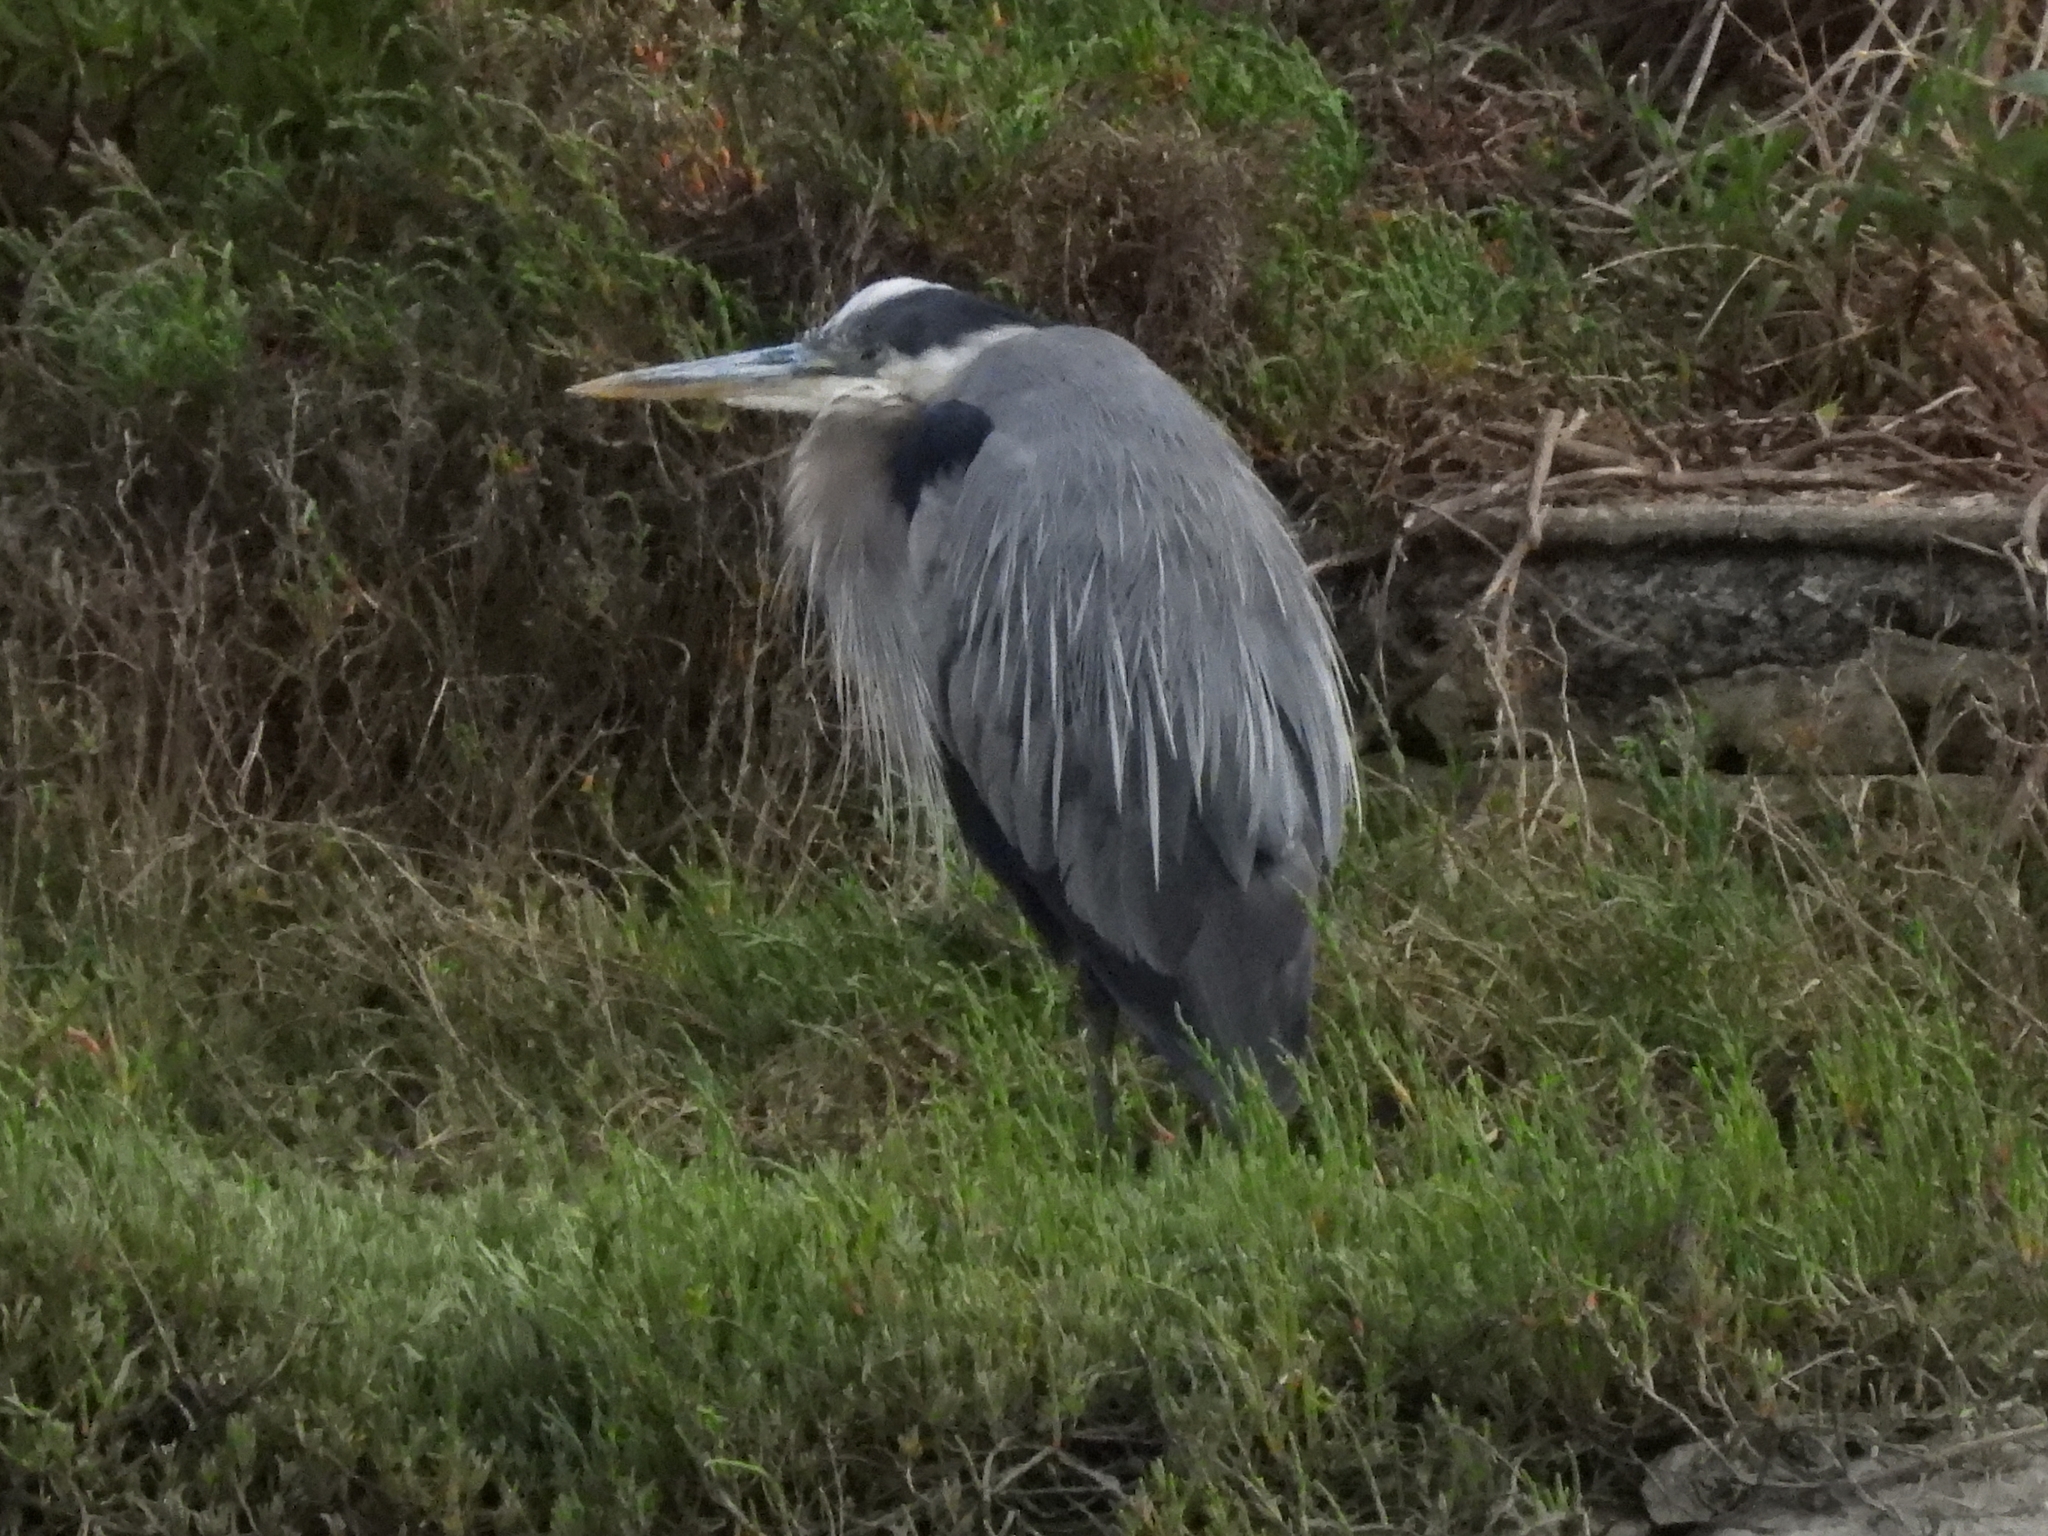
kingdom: Animalia
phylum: Chordata
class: Aves
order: Pelecaniformes
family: Ardeidae
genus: Ardea
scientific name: Ardea herodias
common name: Great blue heron
